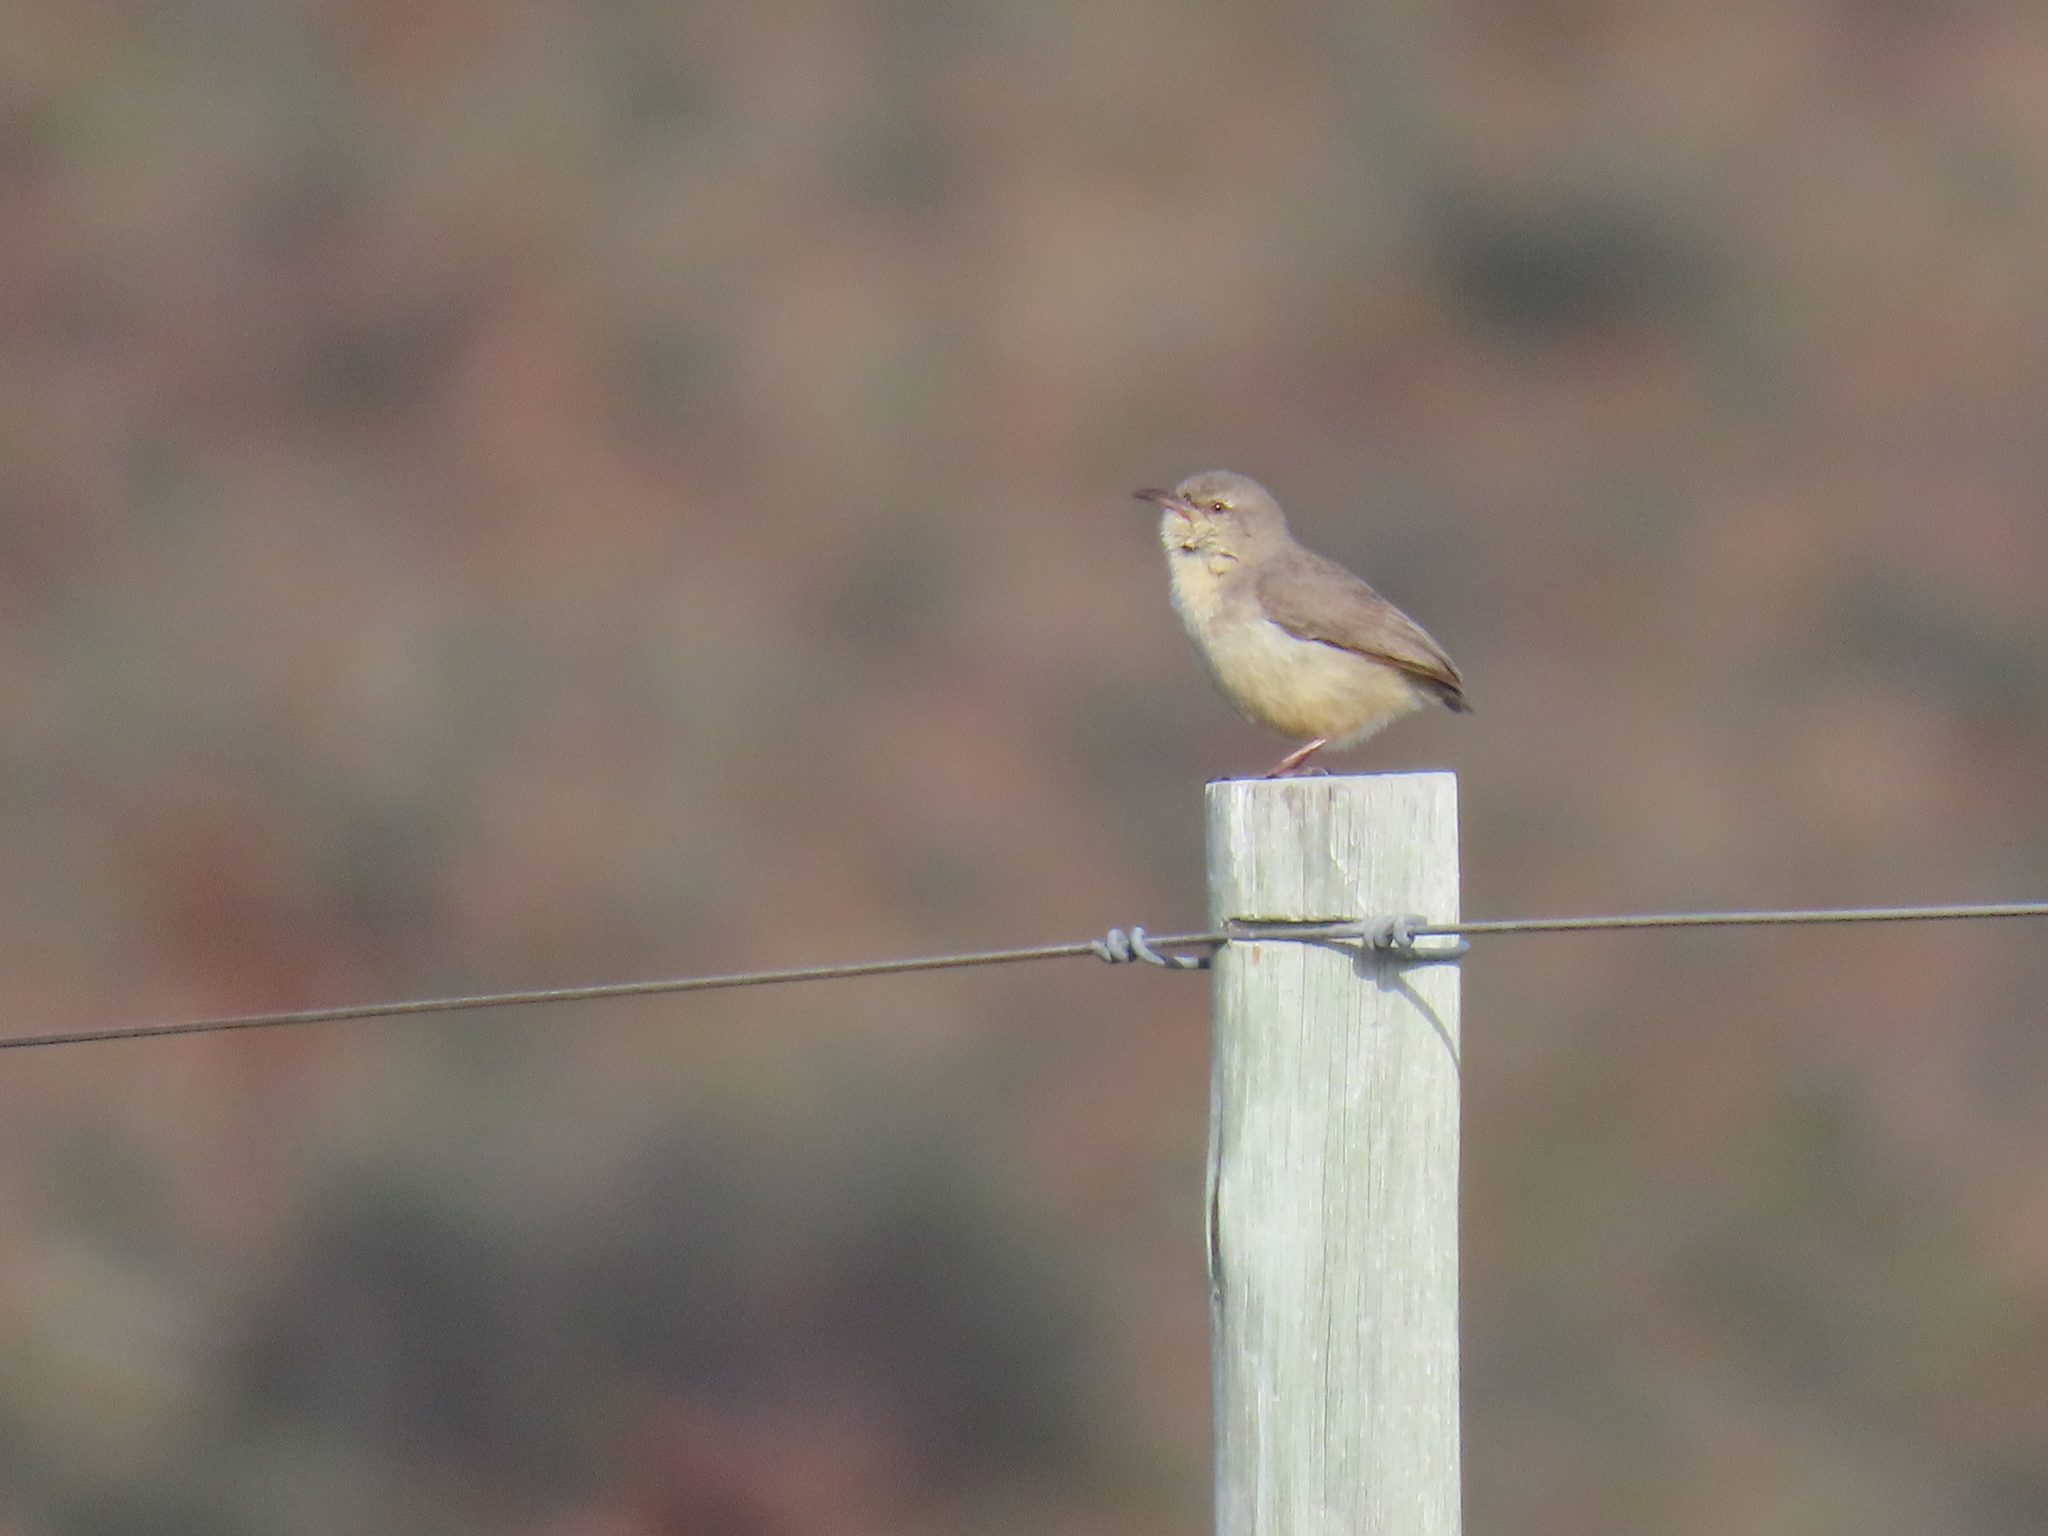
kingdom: Animalia
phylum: Chordata
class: Aves
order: Passeriformes
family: Macrosphenidae
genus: Sylvietta
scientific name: Sylvietta rufescens
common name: Long-billed crombec
